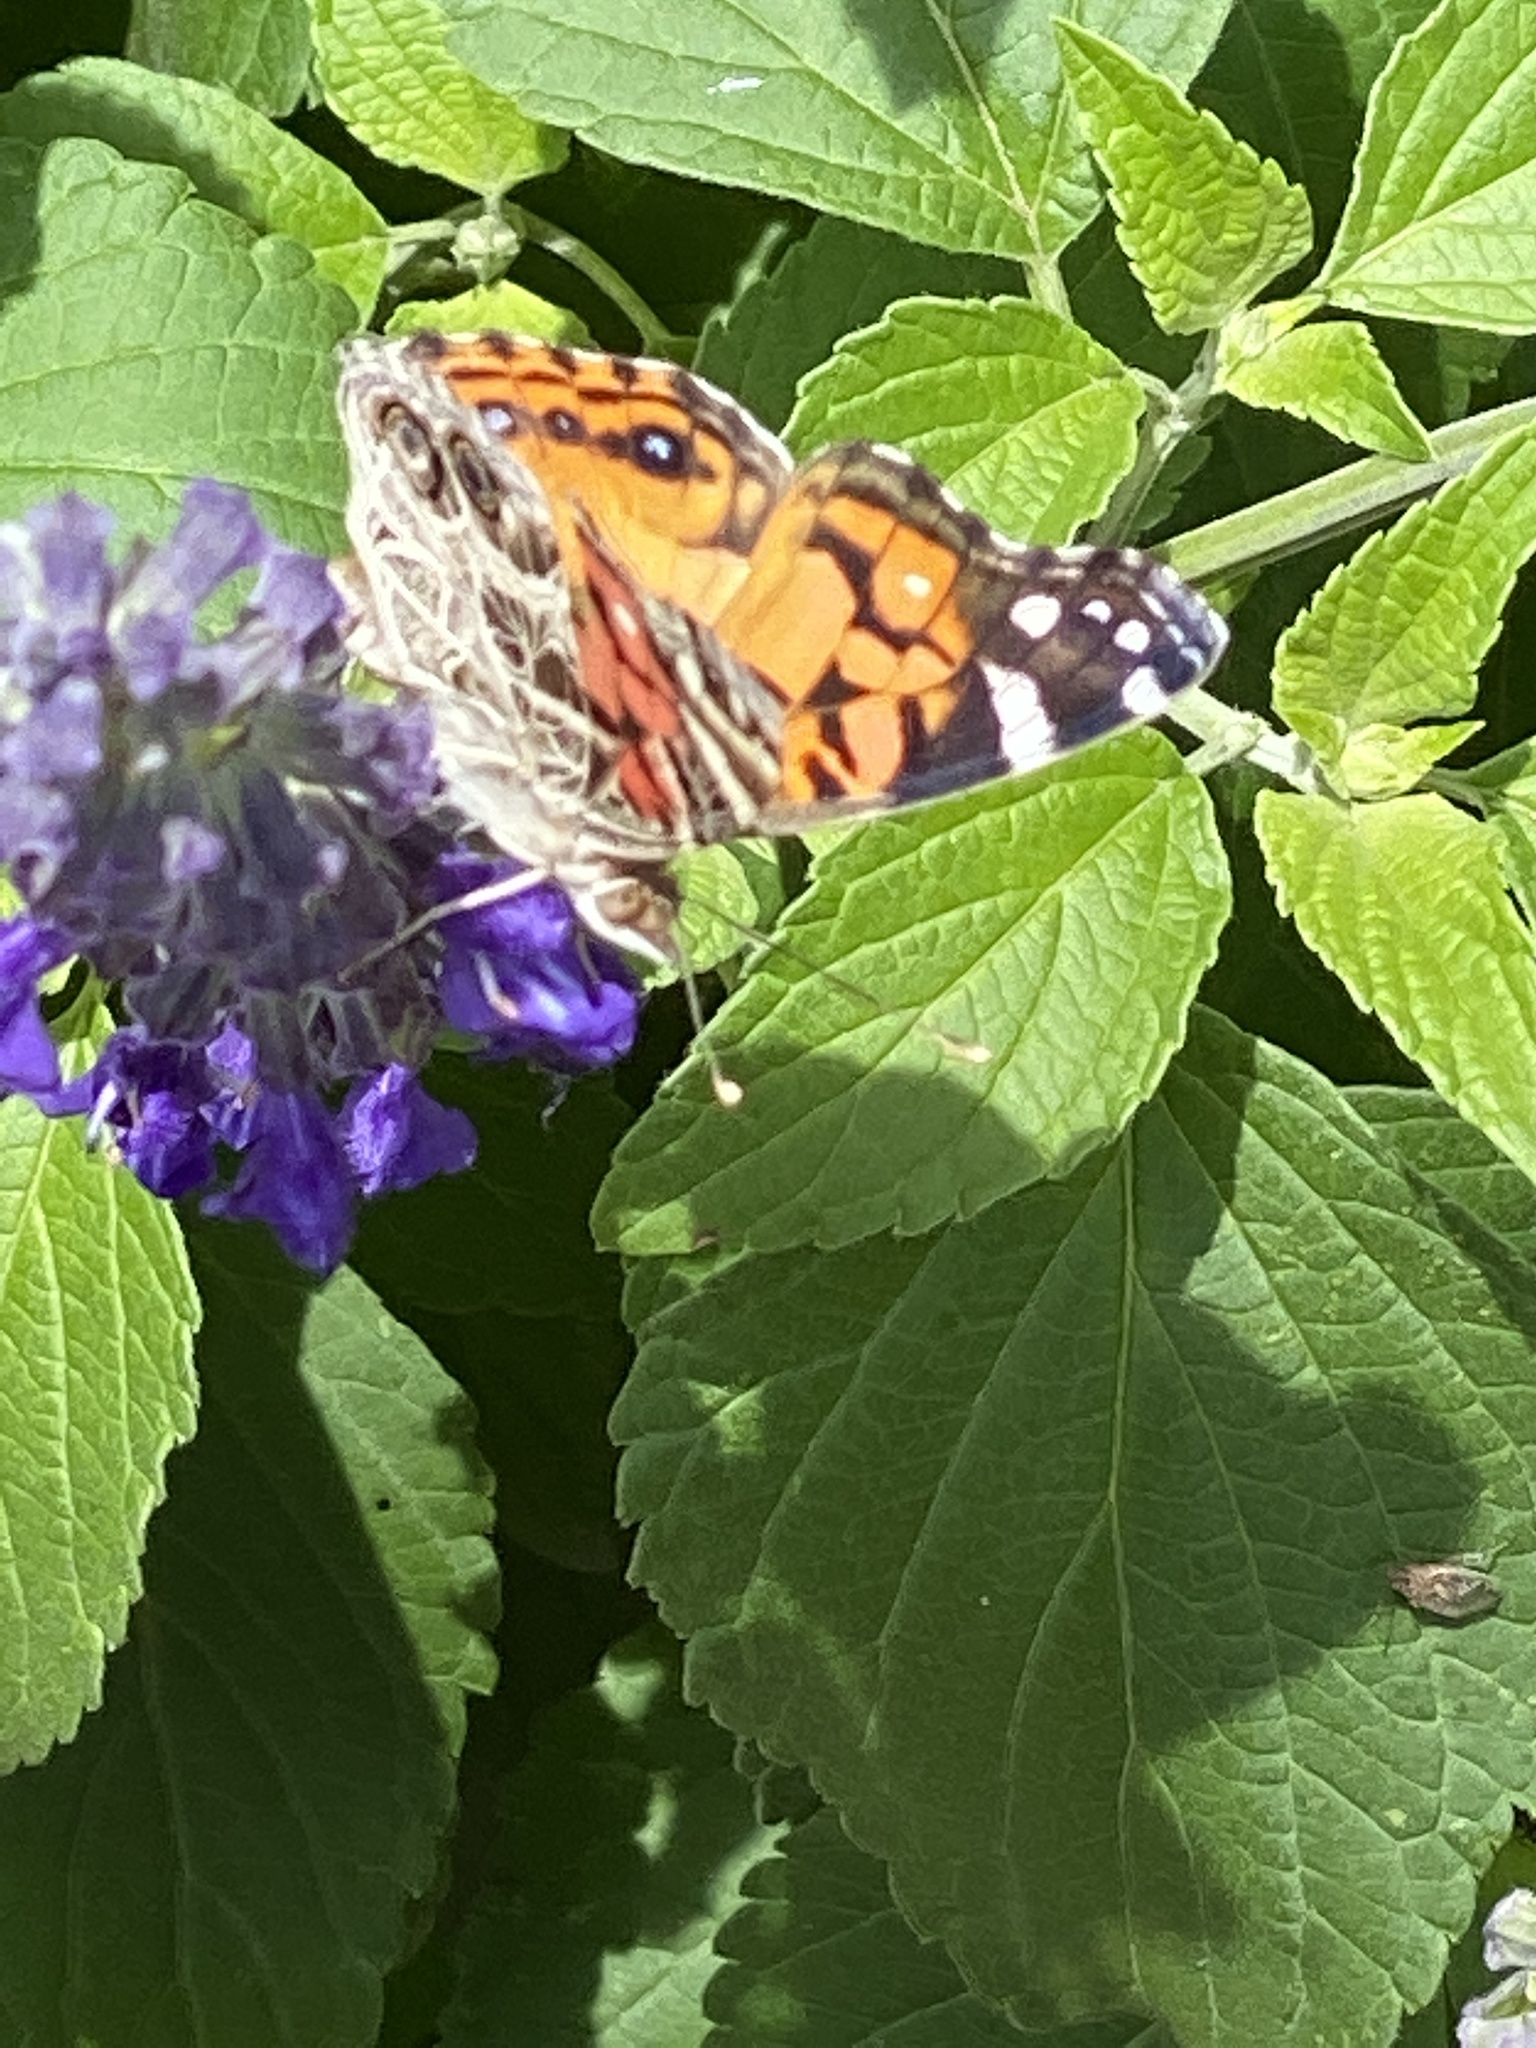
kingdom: Animalia
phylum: Arthropoda
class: Insecta
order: Lepidoptera
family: Nymphalidae
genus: Vanessa
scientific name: Vanessa virginiensis
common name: American lady
